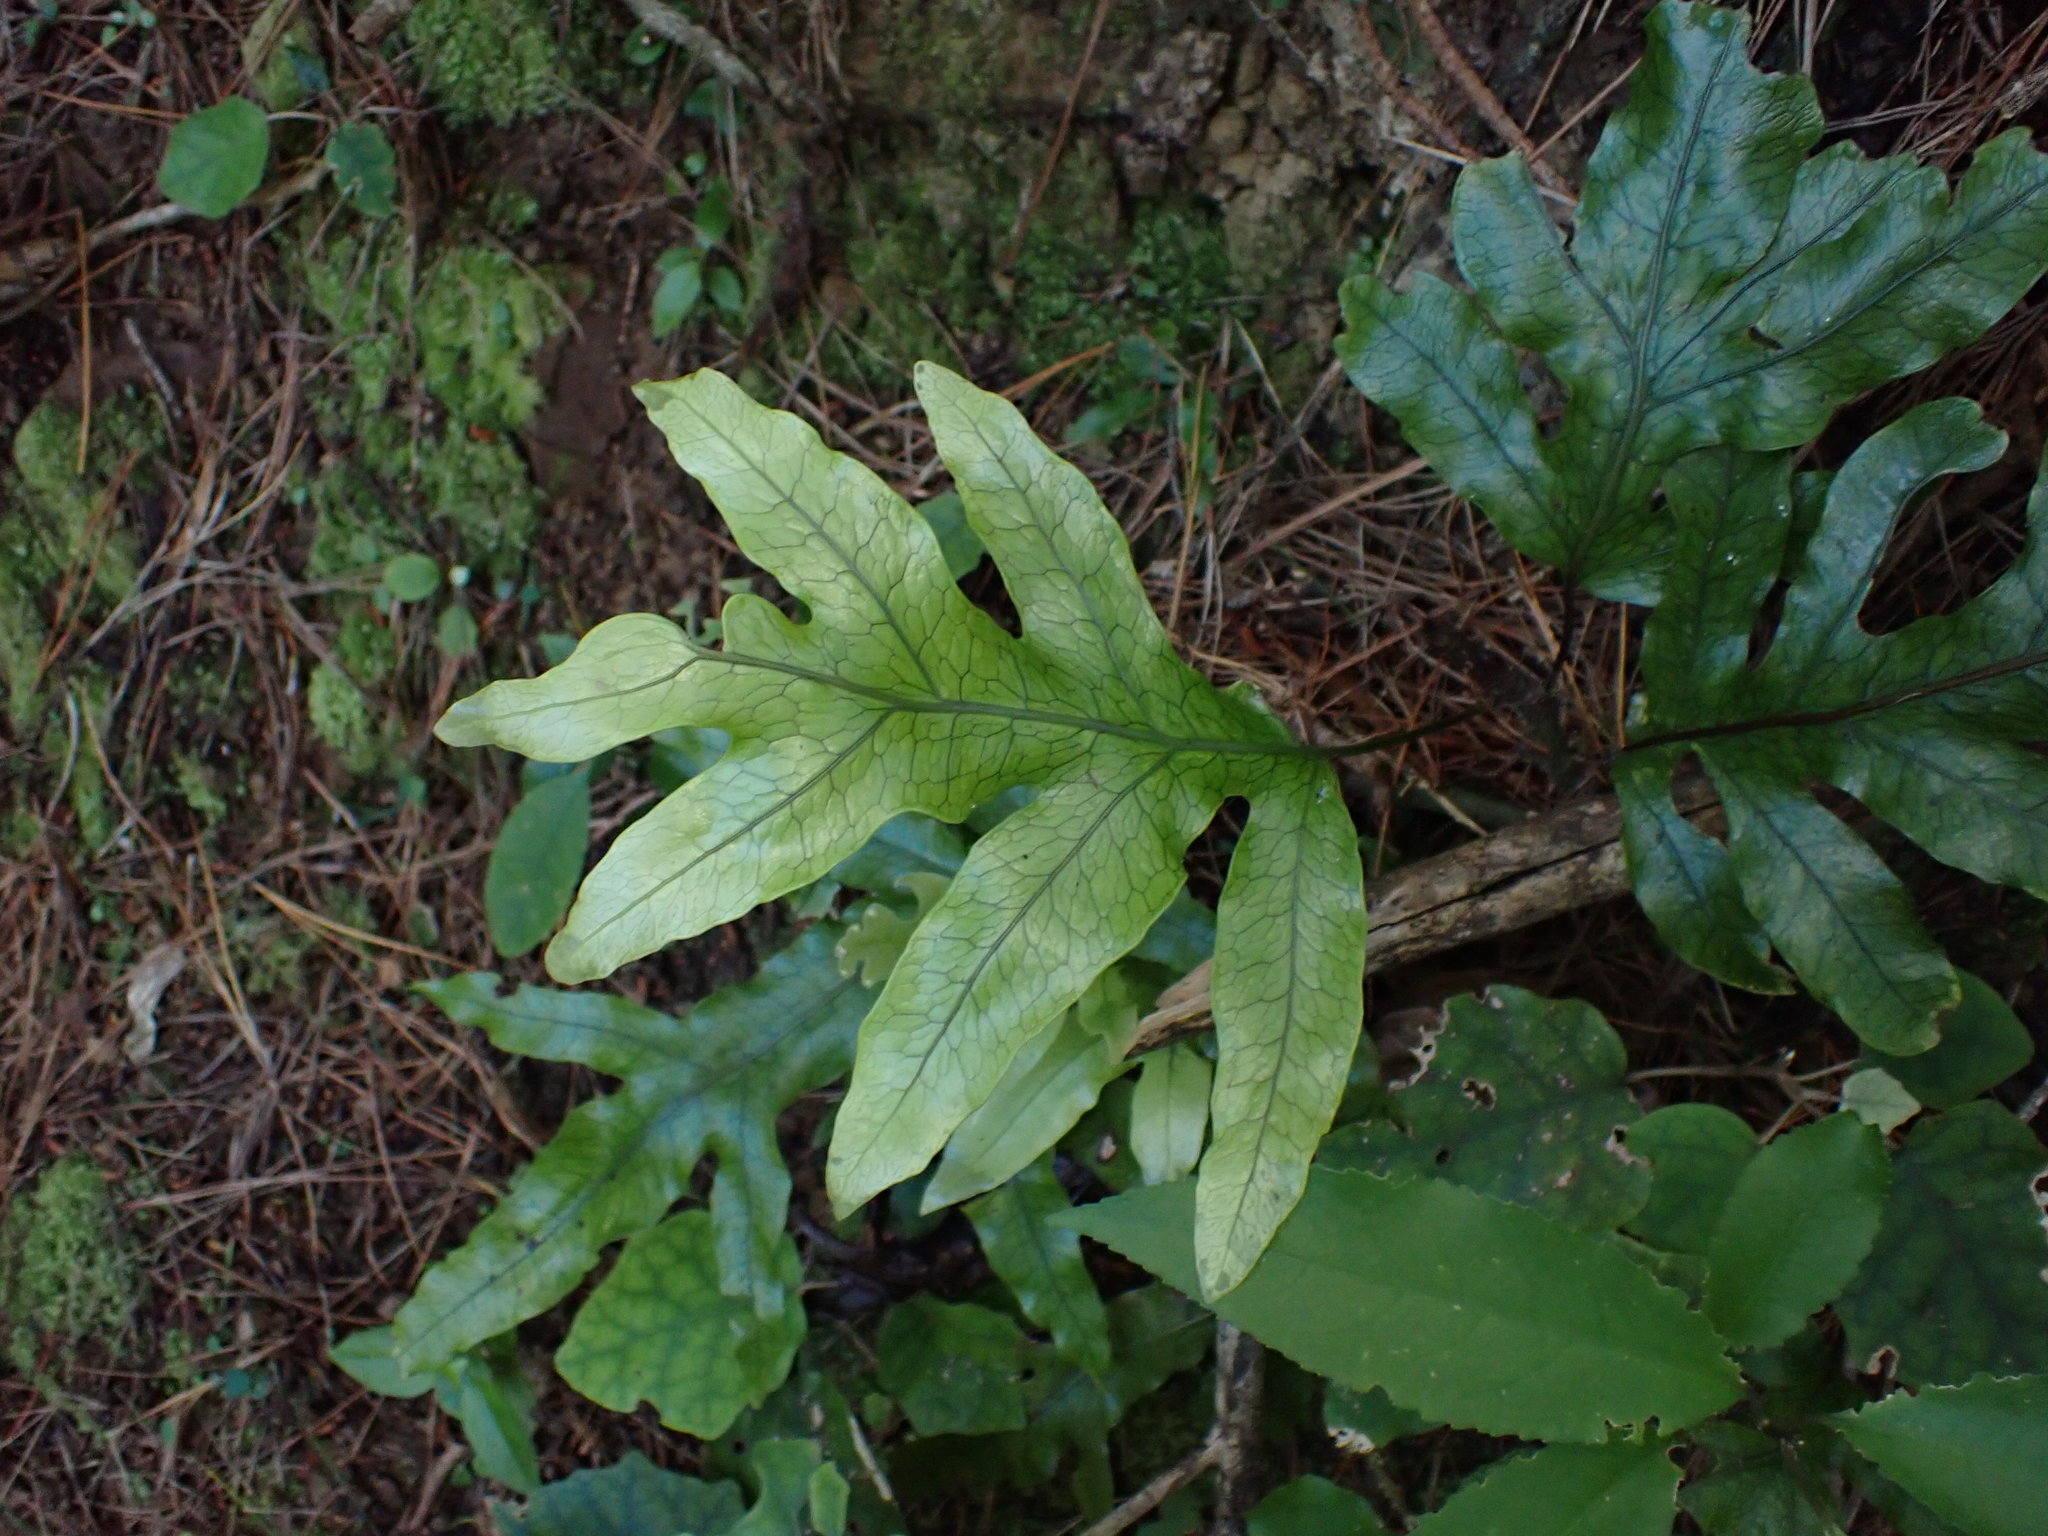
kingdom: Plantae
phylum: Tracheophyta
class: Polypodiopsida
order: Polypodiales
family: Polypodiaceae
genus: Lecanopteris
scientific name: Lecanopteris pustulata
